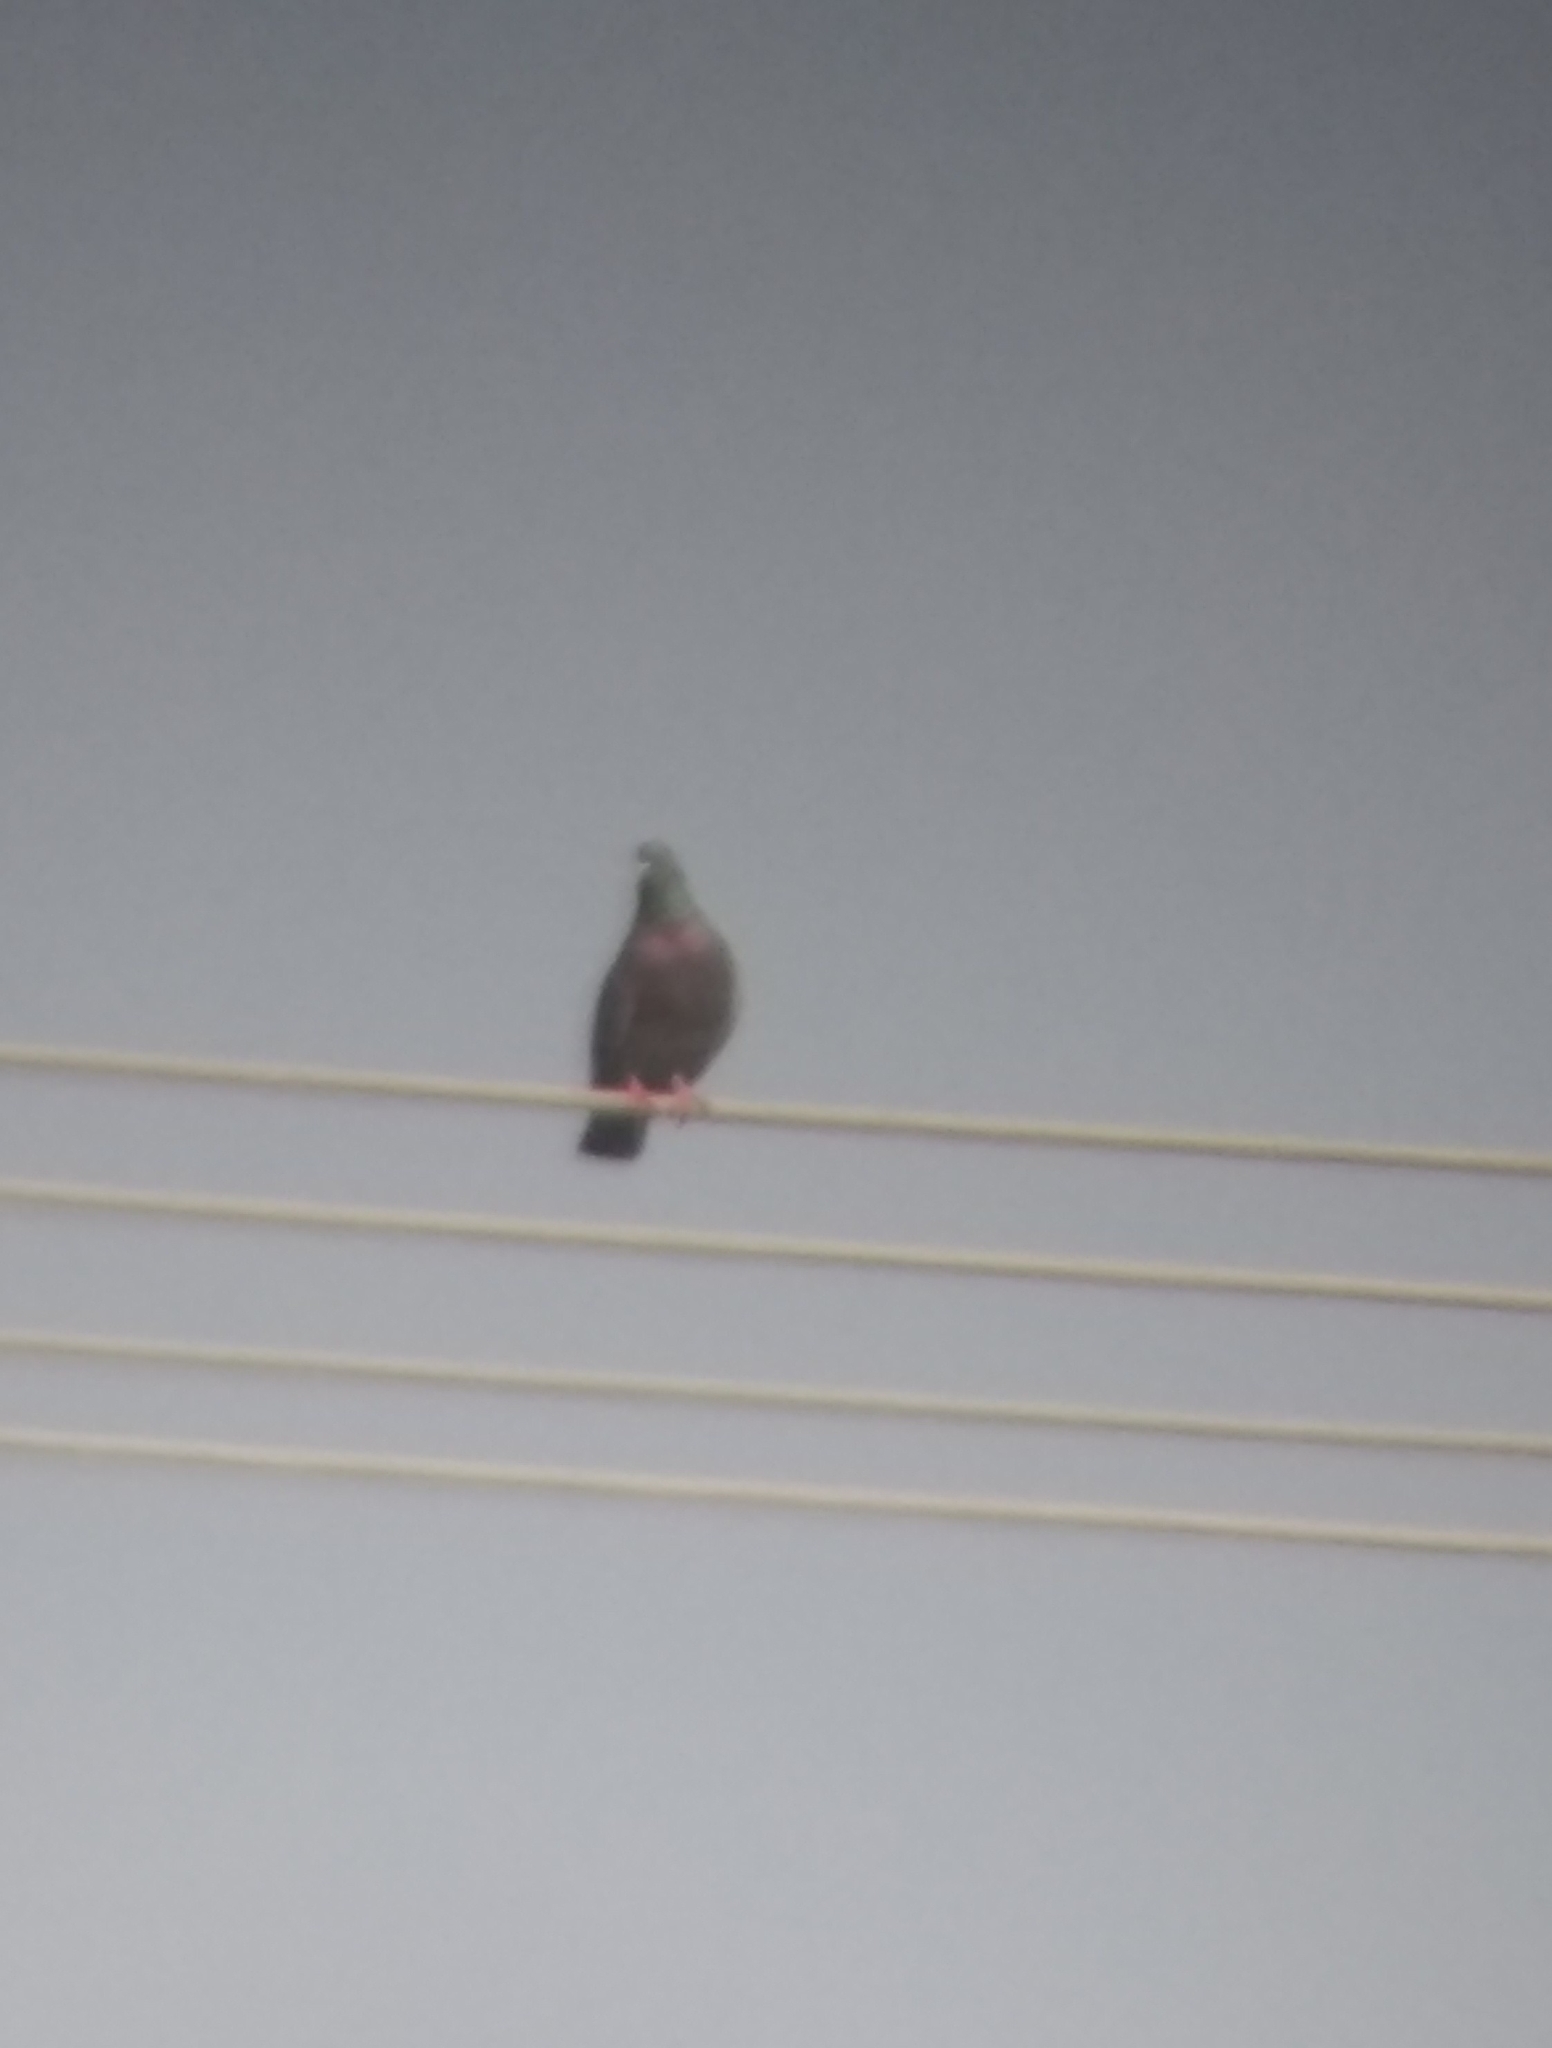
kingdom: Animalia
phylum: Chordata
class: Aves
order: Columbiformes
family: Columbidae
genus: Columba
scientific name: Columba livia
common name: Rock pigeon
